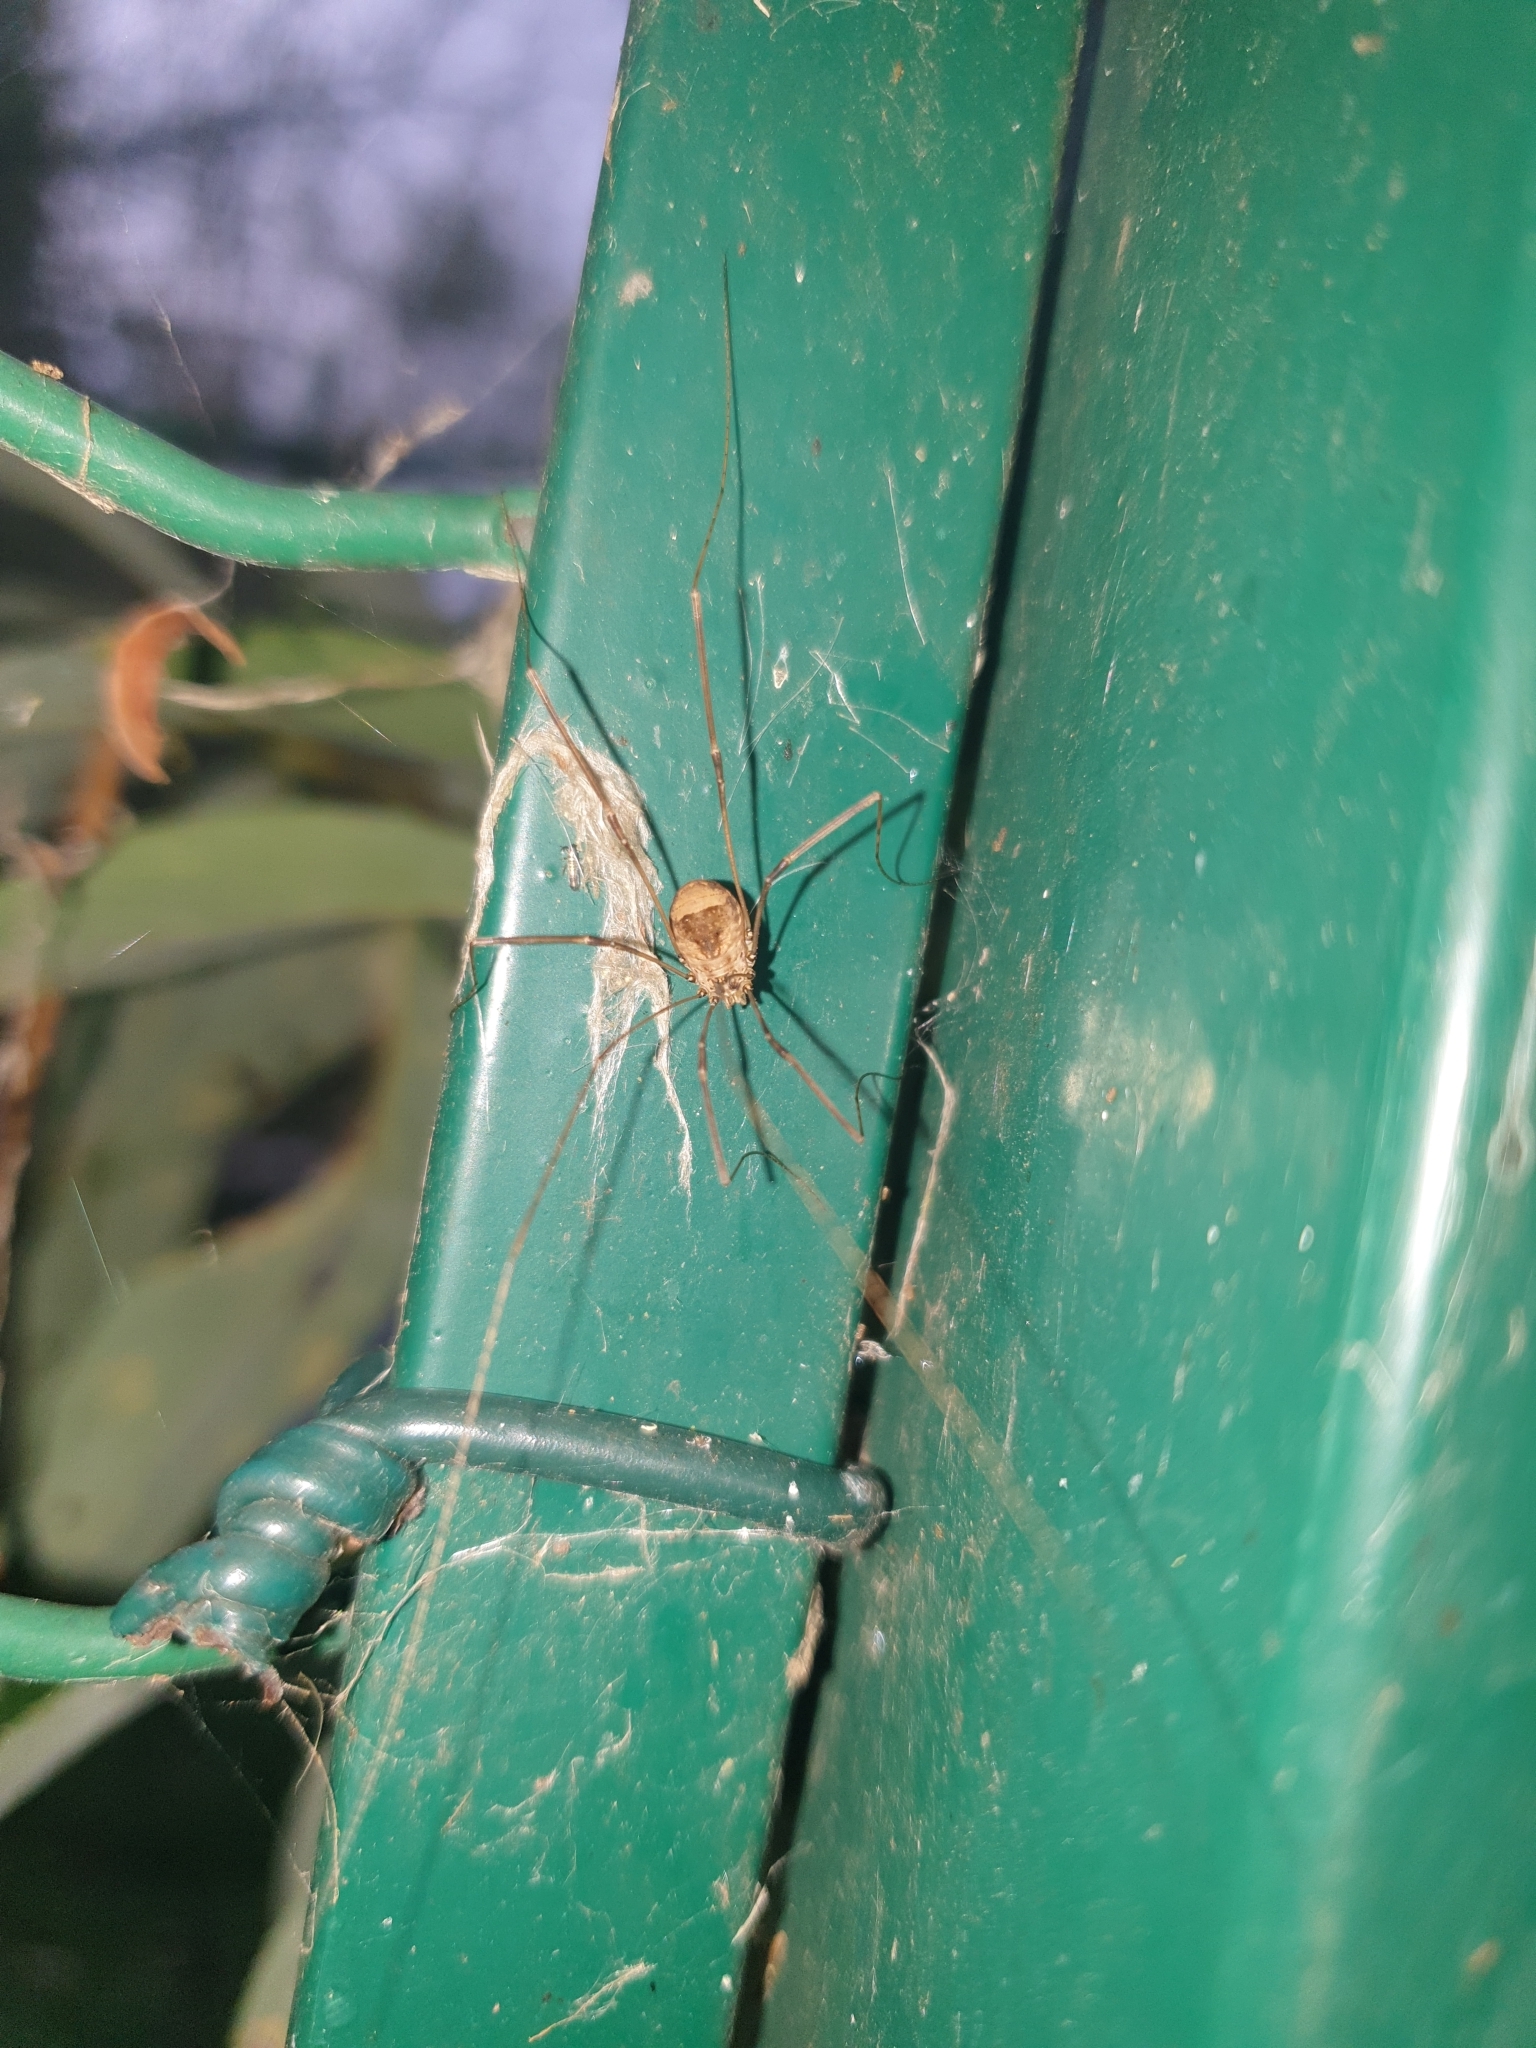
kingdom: Animalia
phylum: Arthropoda
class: Arachnida
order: Opiliones
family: Sclerosomatidae
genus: Leiobunum
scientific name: Leiobunum blackwalli
